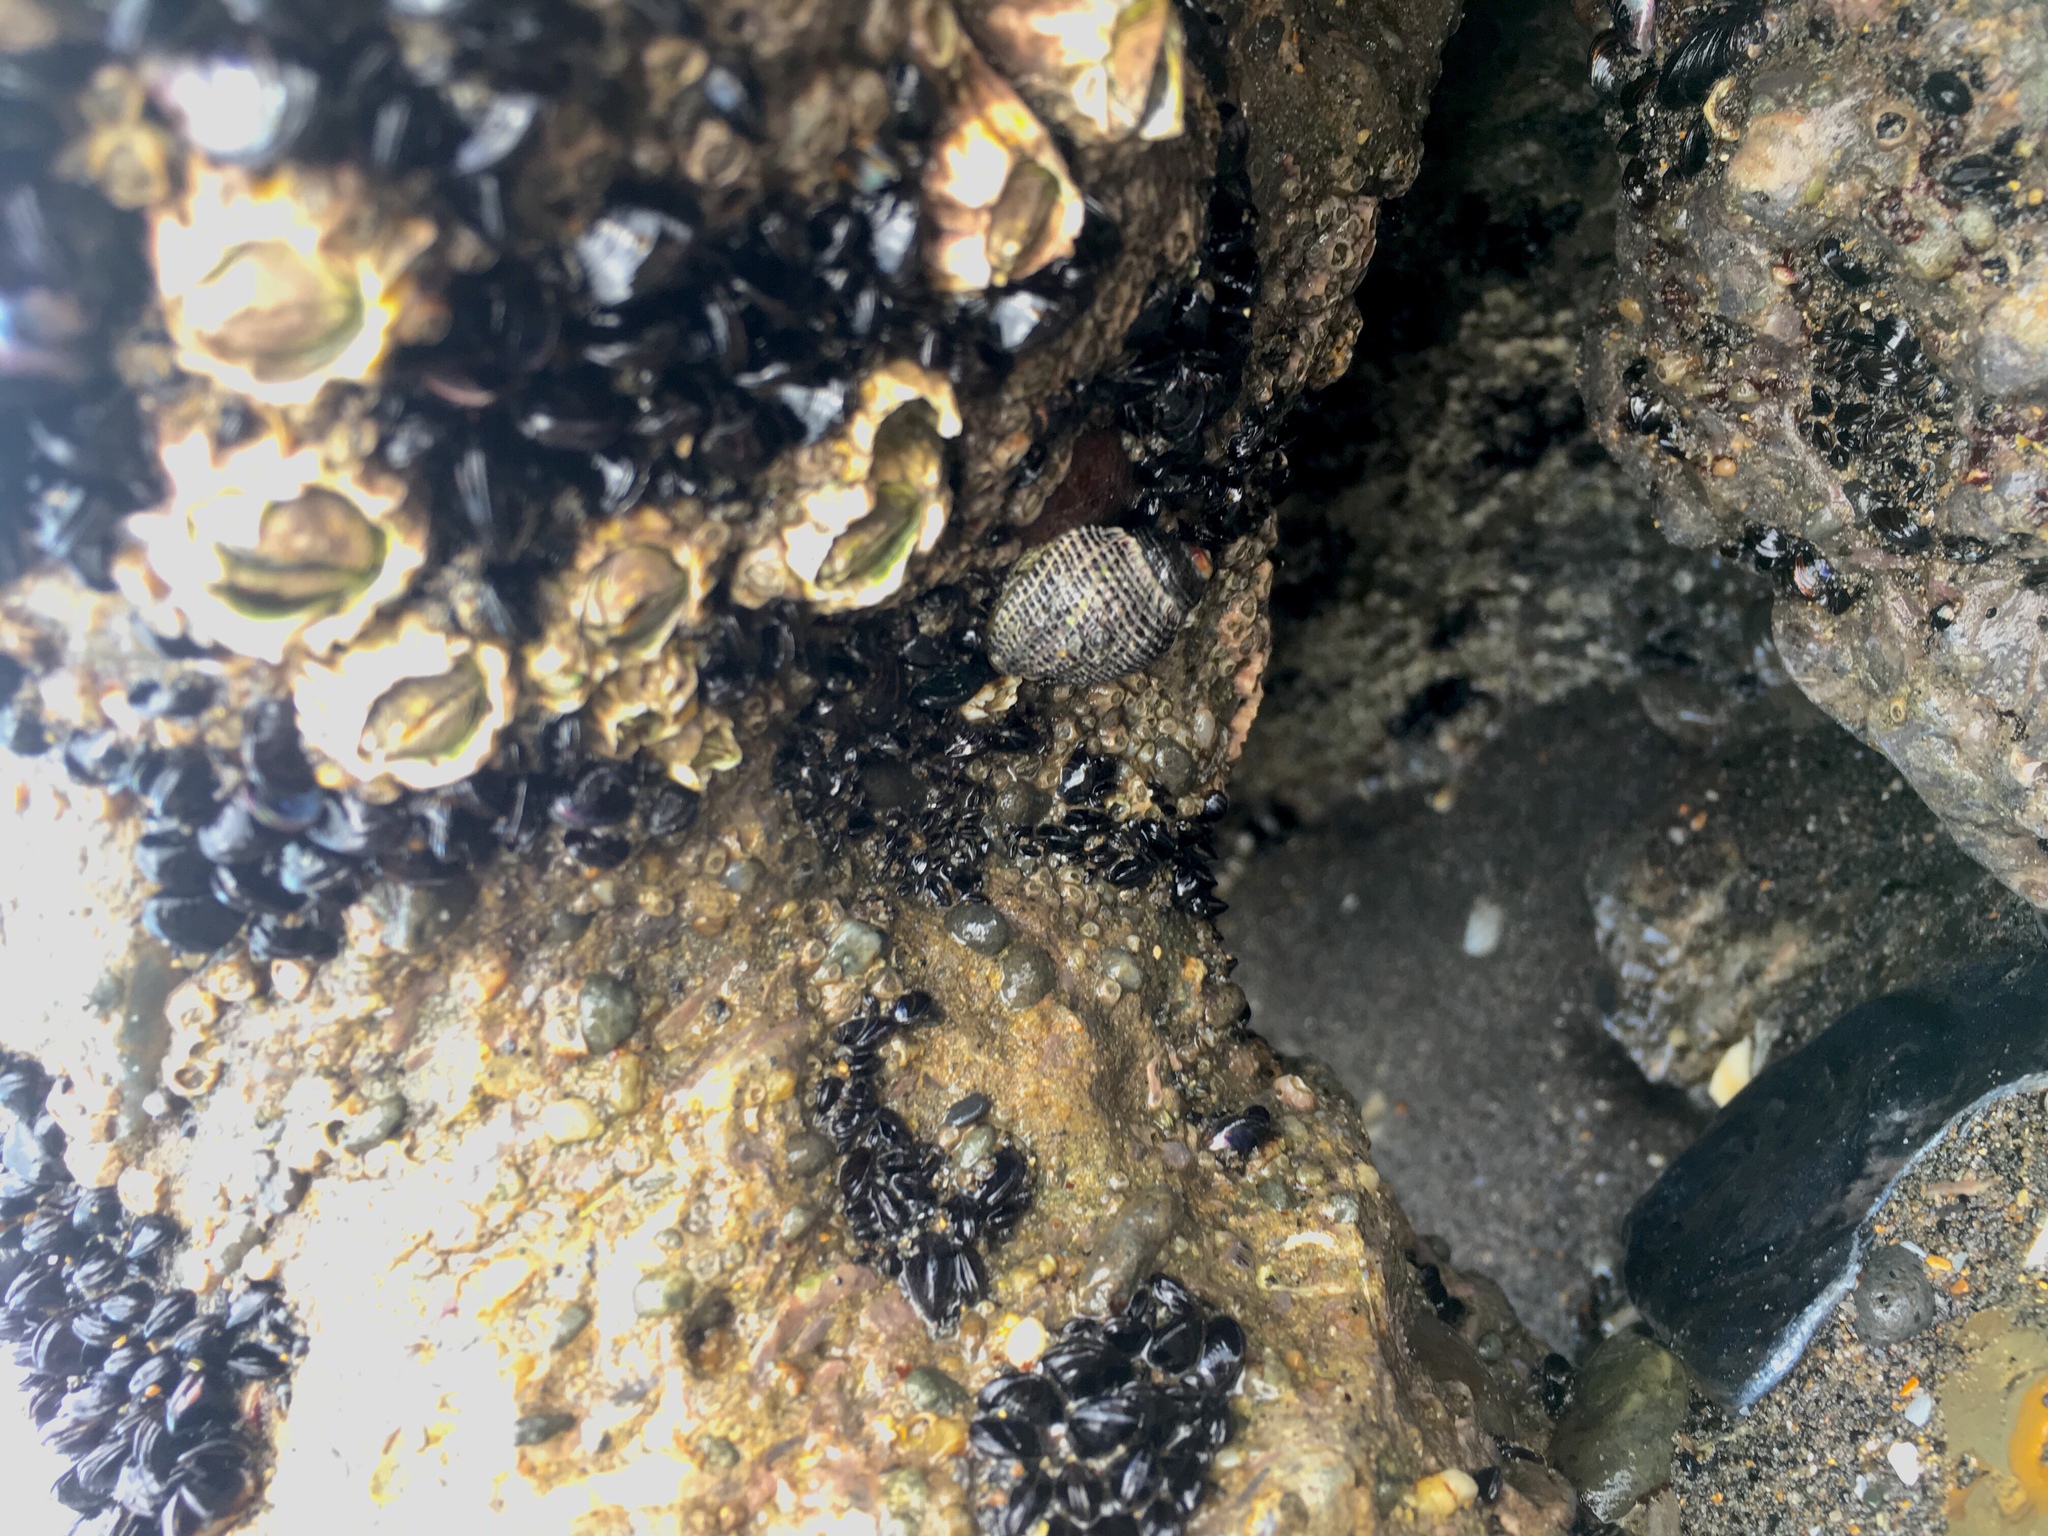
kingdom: Animalia
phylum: Mollusca
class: Gastropoda
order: Neogastropoda
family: Muricidae
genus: Haustrum
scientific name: Haustrum albomarginatum
